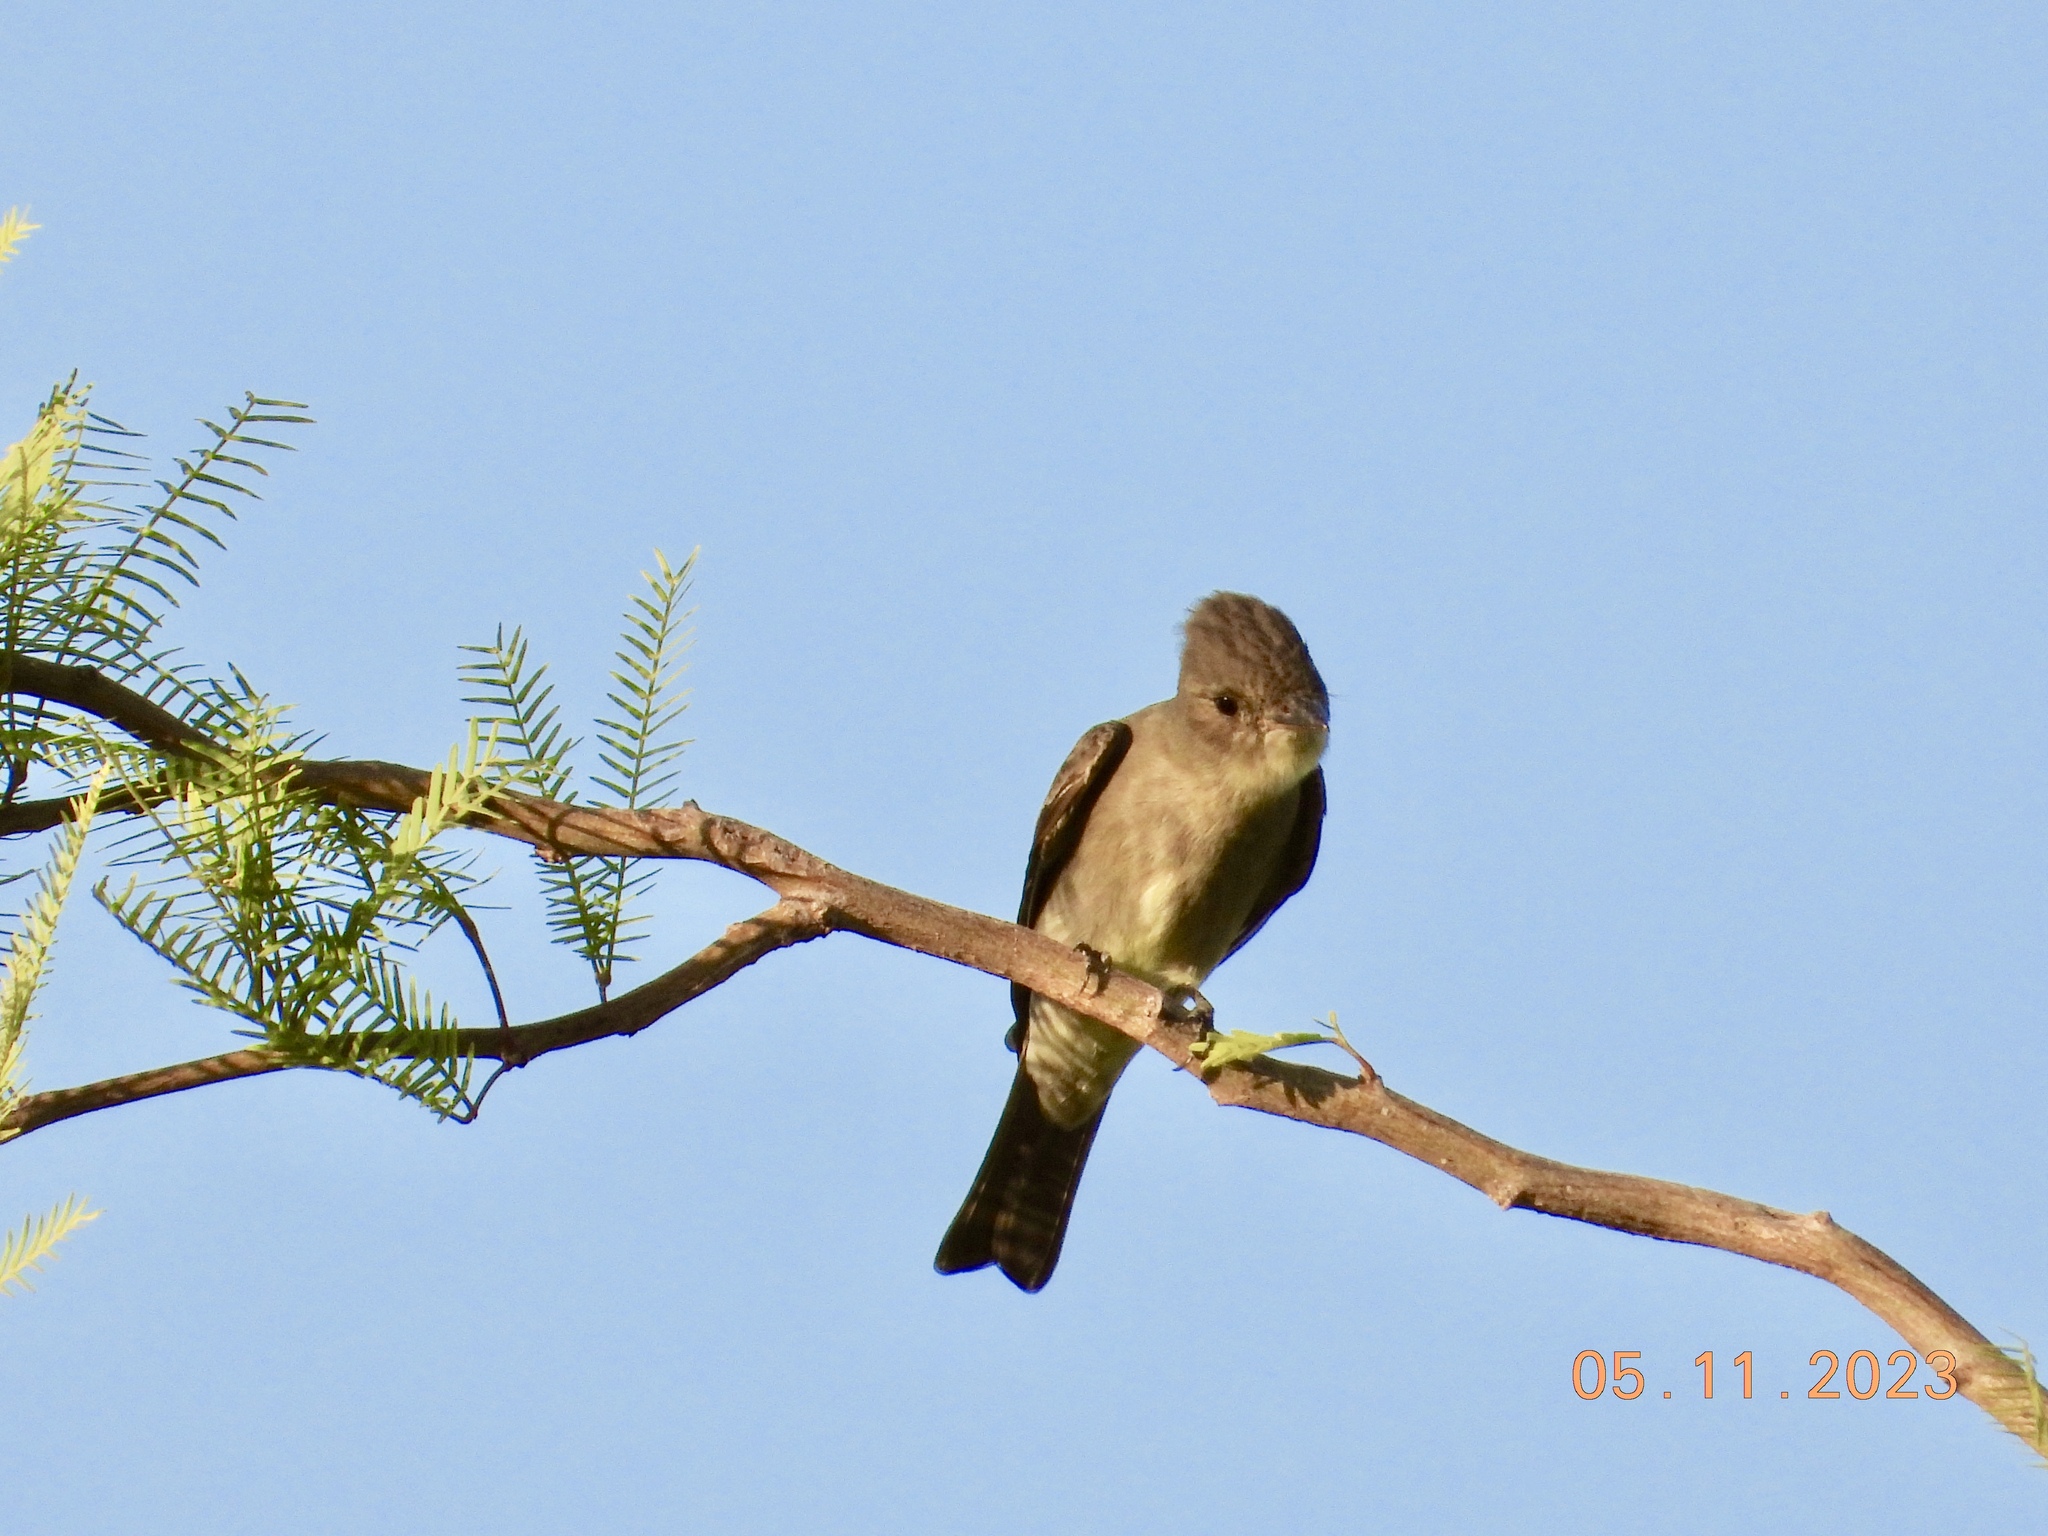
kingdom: Animalia
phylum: Chordata
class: Aves
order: Passeriformes
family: Tyrannidae
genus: Contopus
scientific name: Contopus sordidulus
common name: Western wood-pewee
